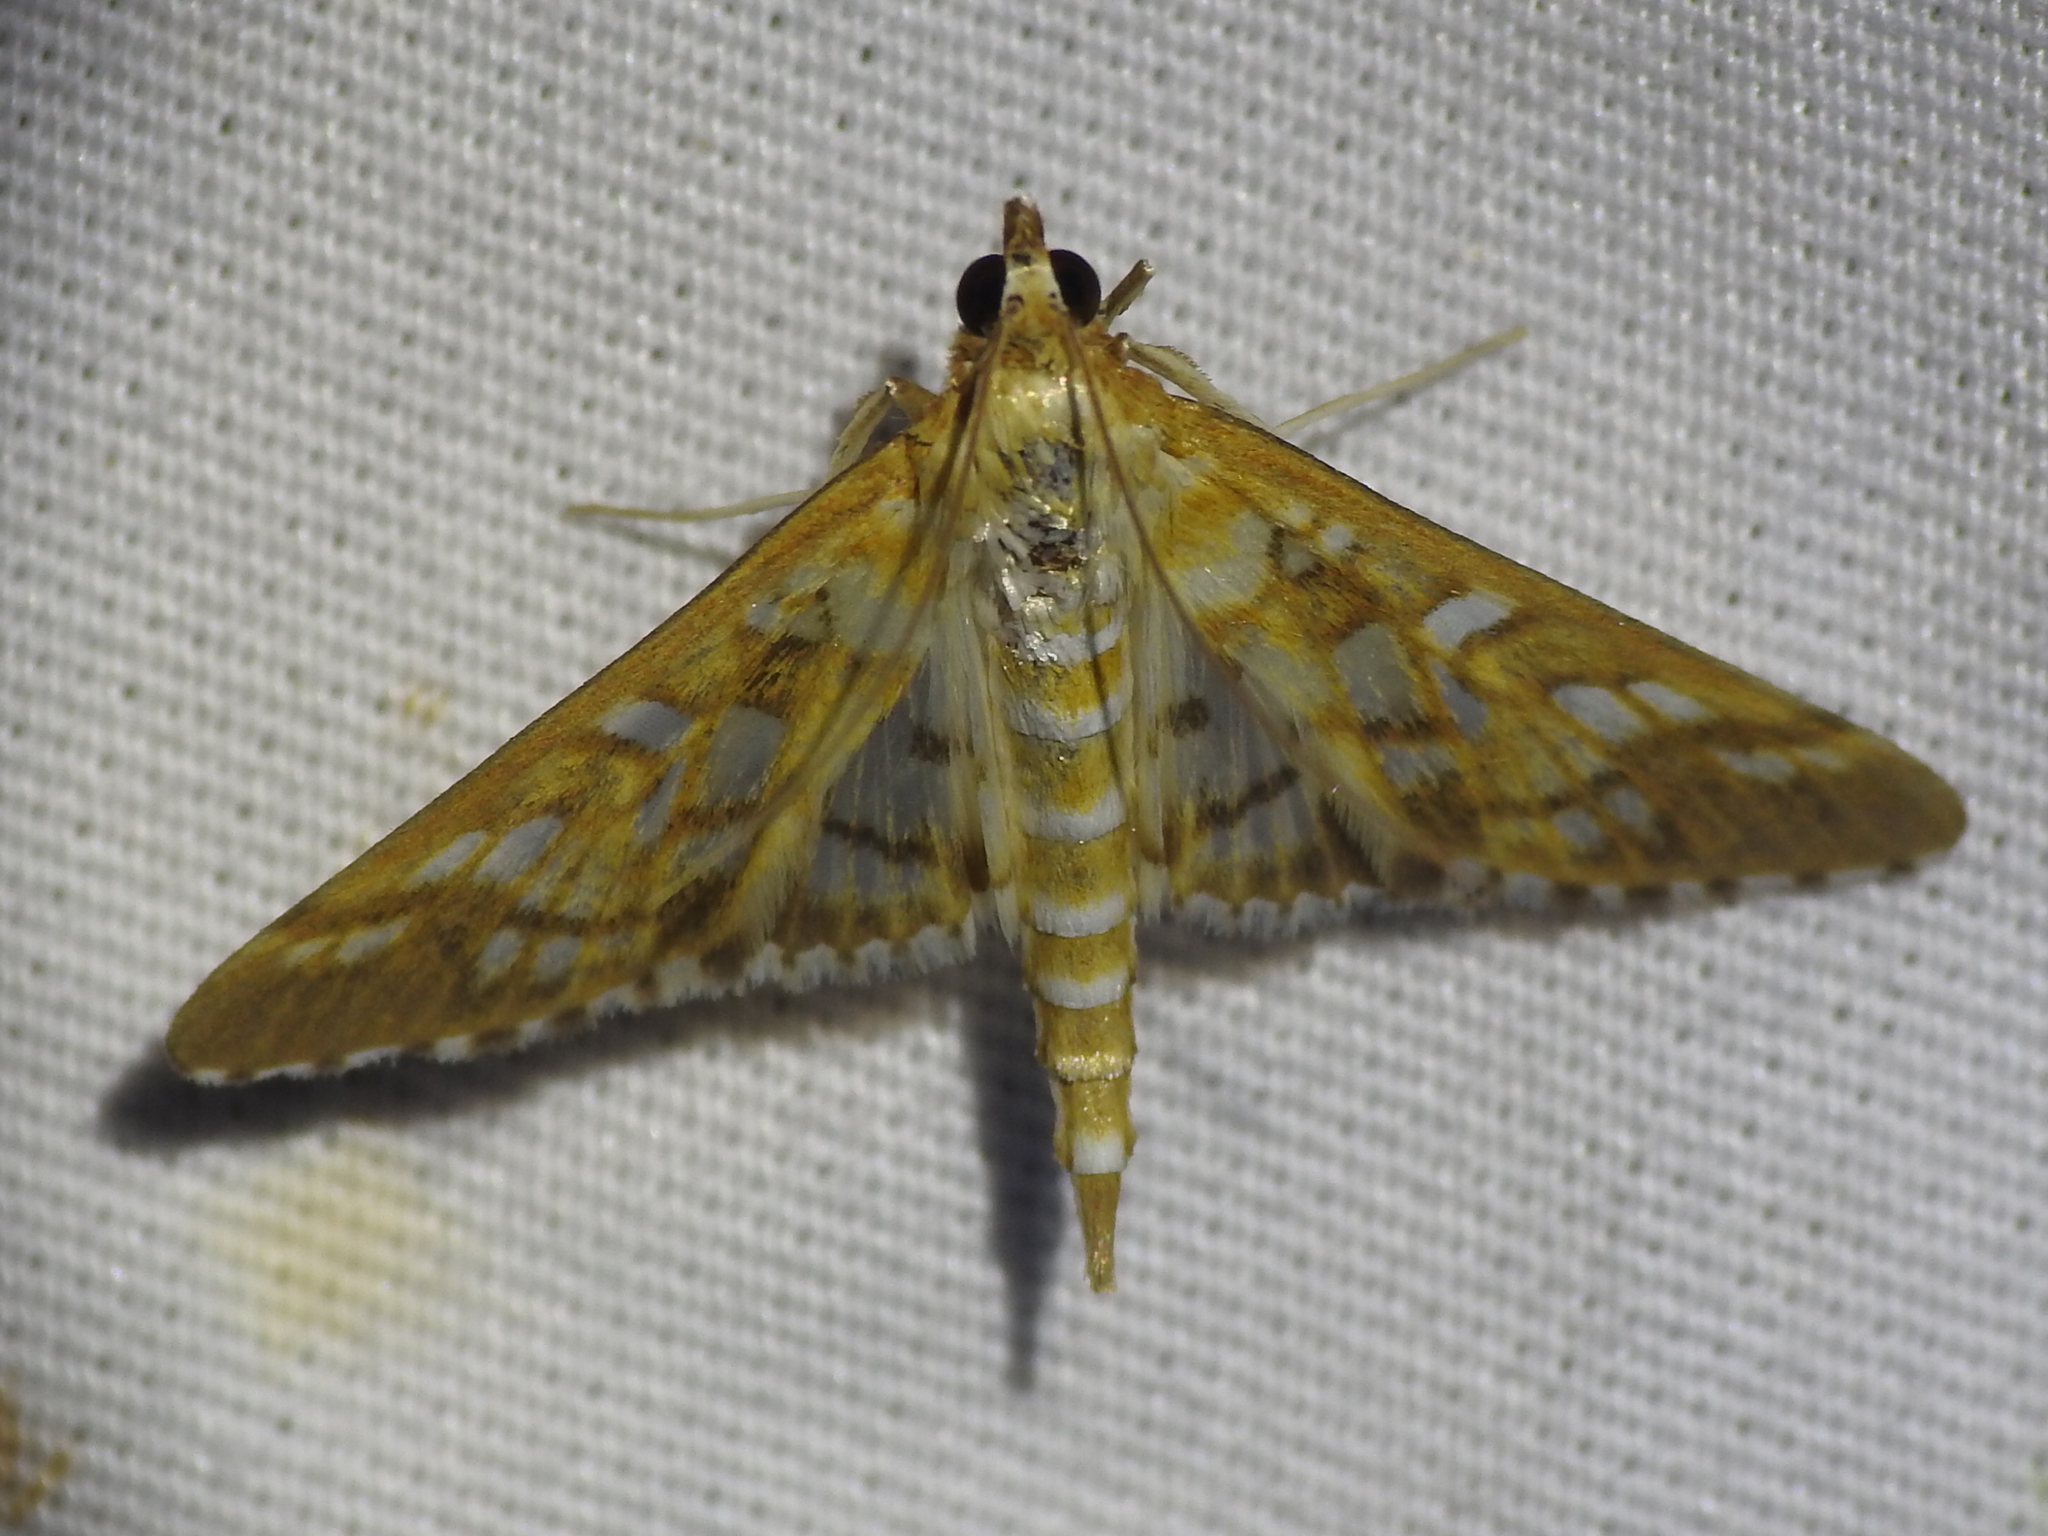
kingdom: Animalia
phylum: Arthropoda
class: Insecta
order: Lepidoptera
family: Crambidae
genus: Epipagis
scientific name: Epipagis fenestralis
